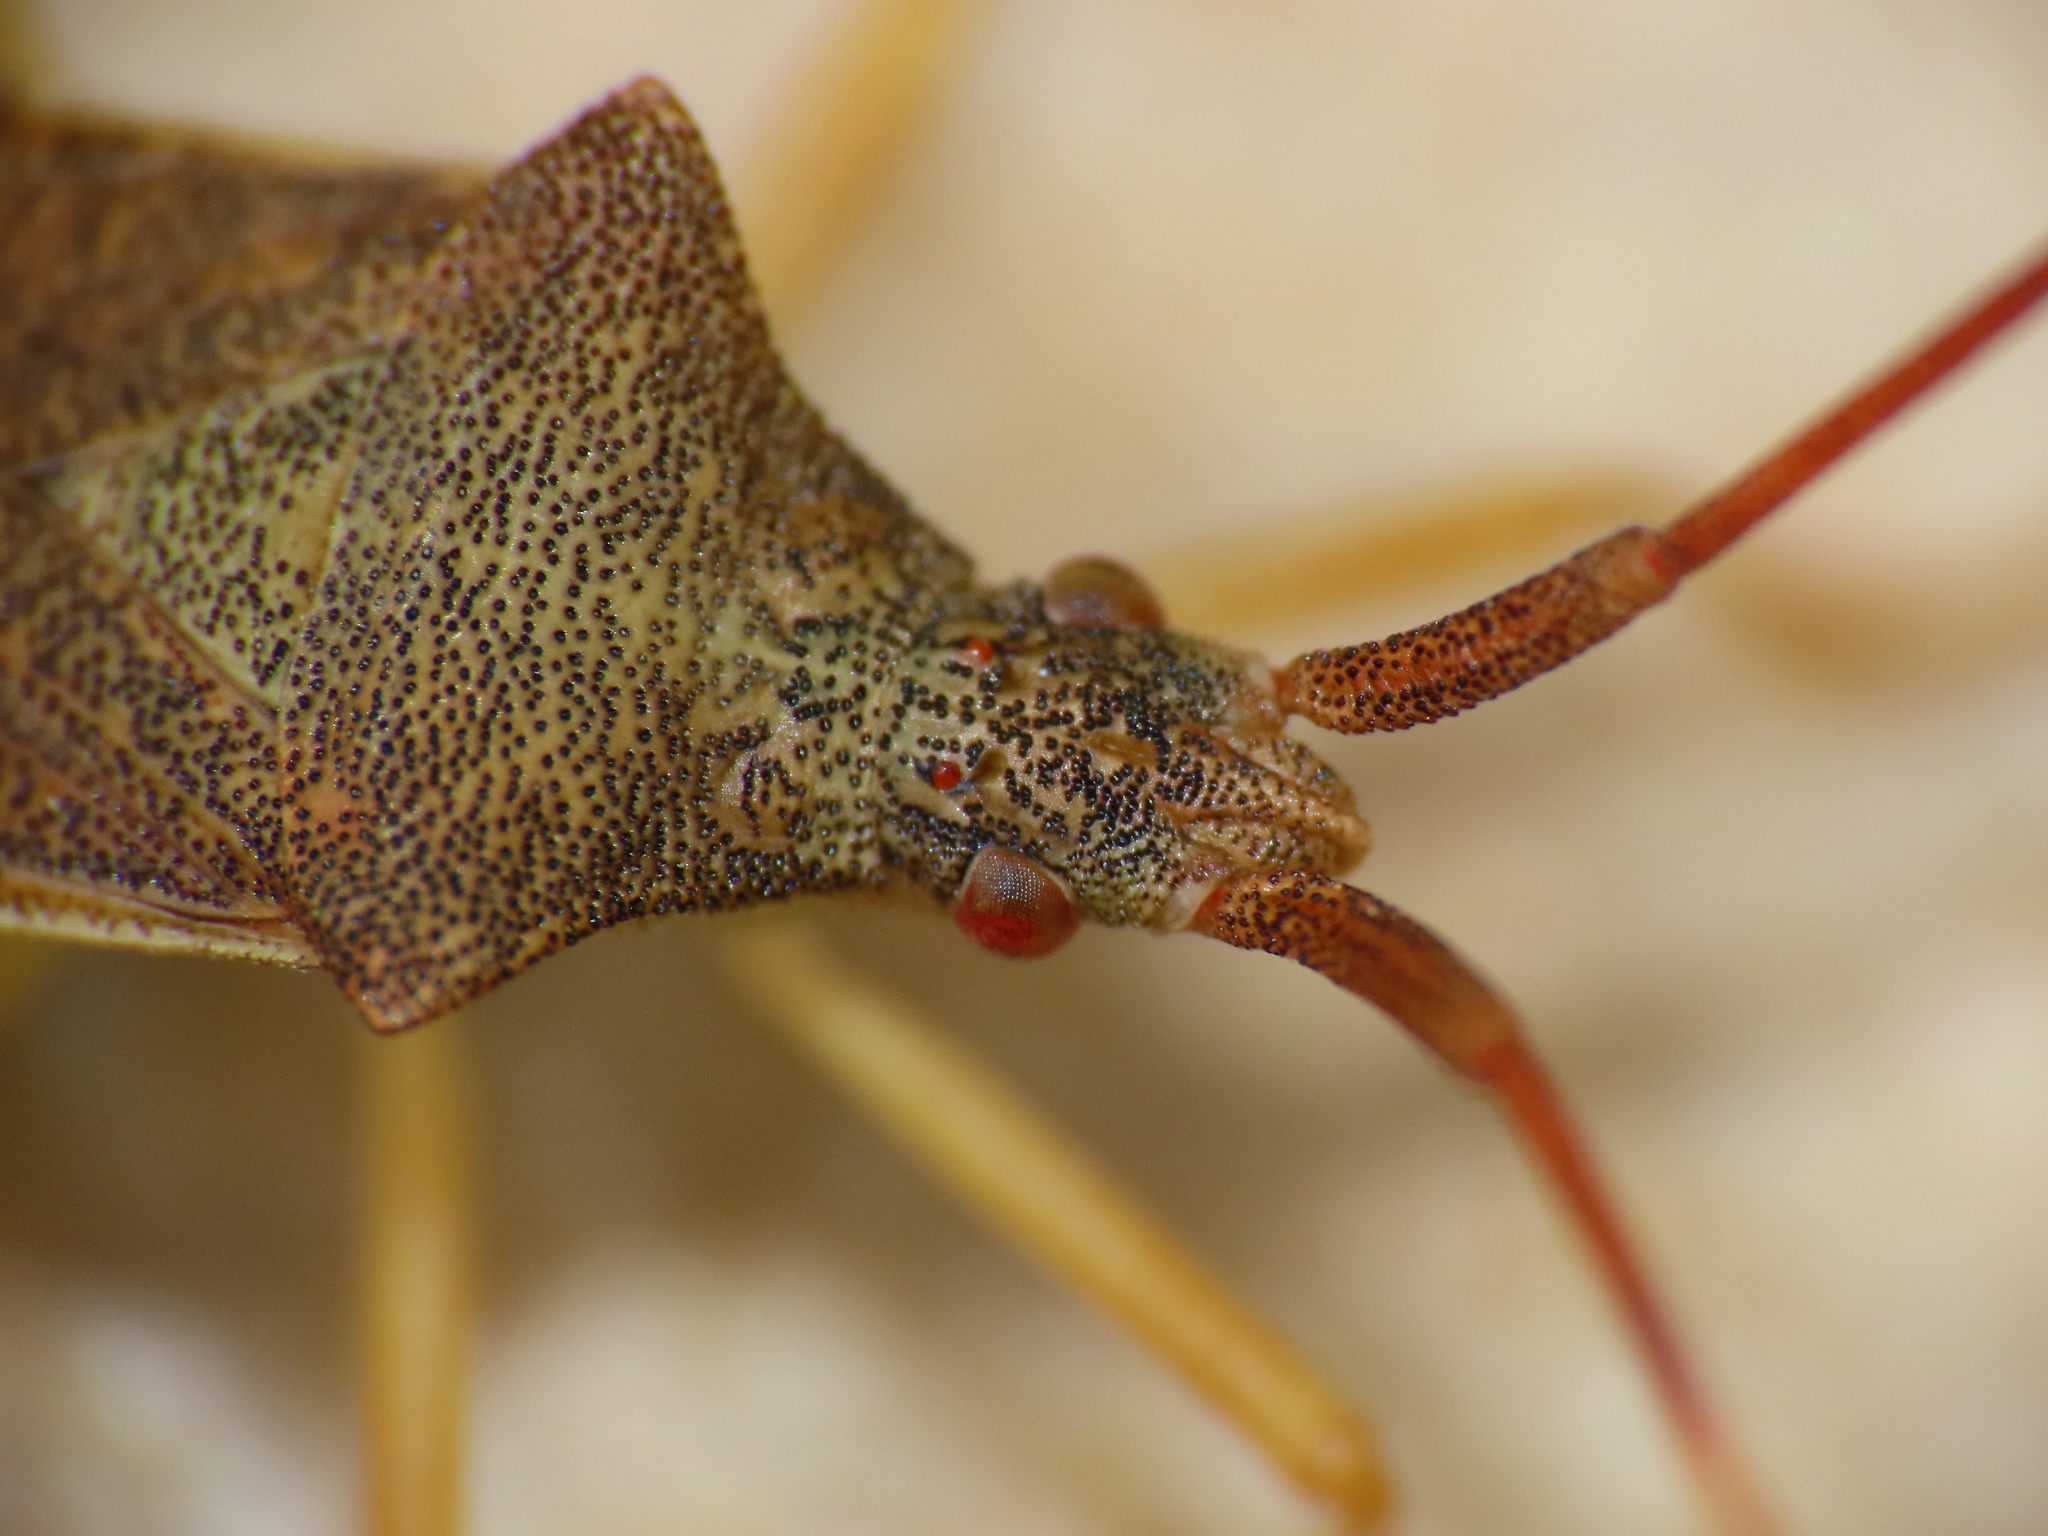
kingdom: Animalia
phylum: Arthropoda
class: Insecta
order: Hemiptera
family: Coreidae
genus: Gonocerus
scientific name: Gonocerus acuteangulatus
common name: Box bug
